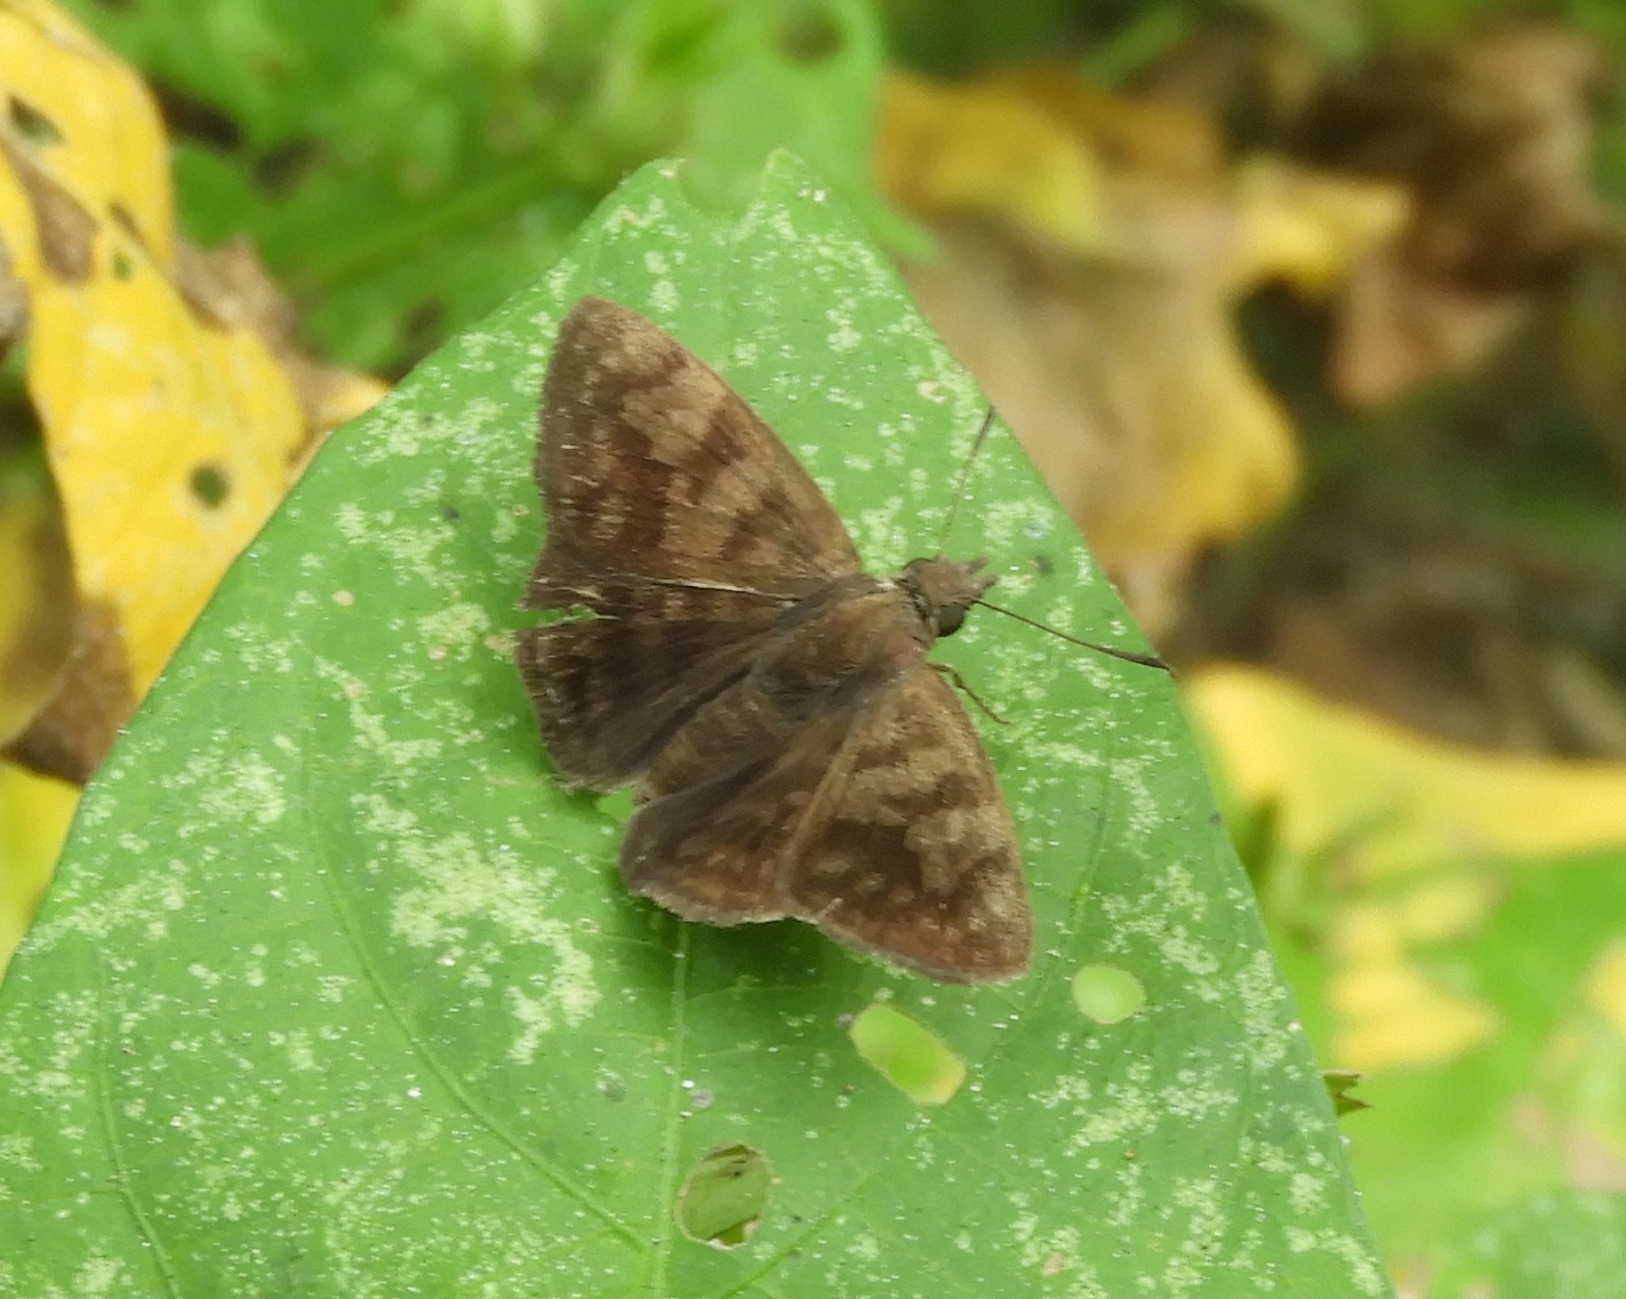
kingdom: Animalia
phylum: Arthropoda
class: Insecta
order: Lepidoptera
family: Hesperiidae
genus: Pellicia
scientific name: Pellicia dimidiata
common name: Morning glory pellicia
